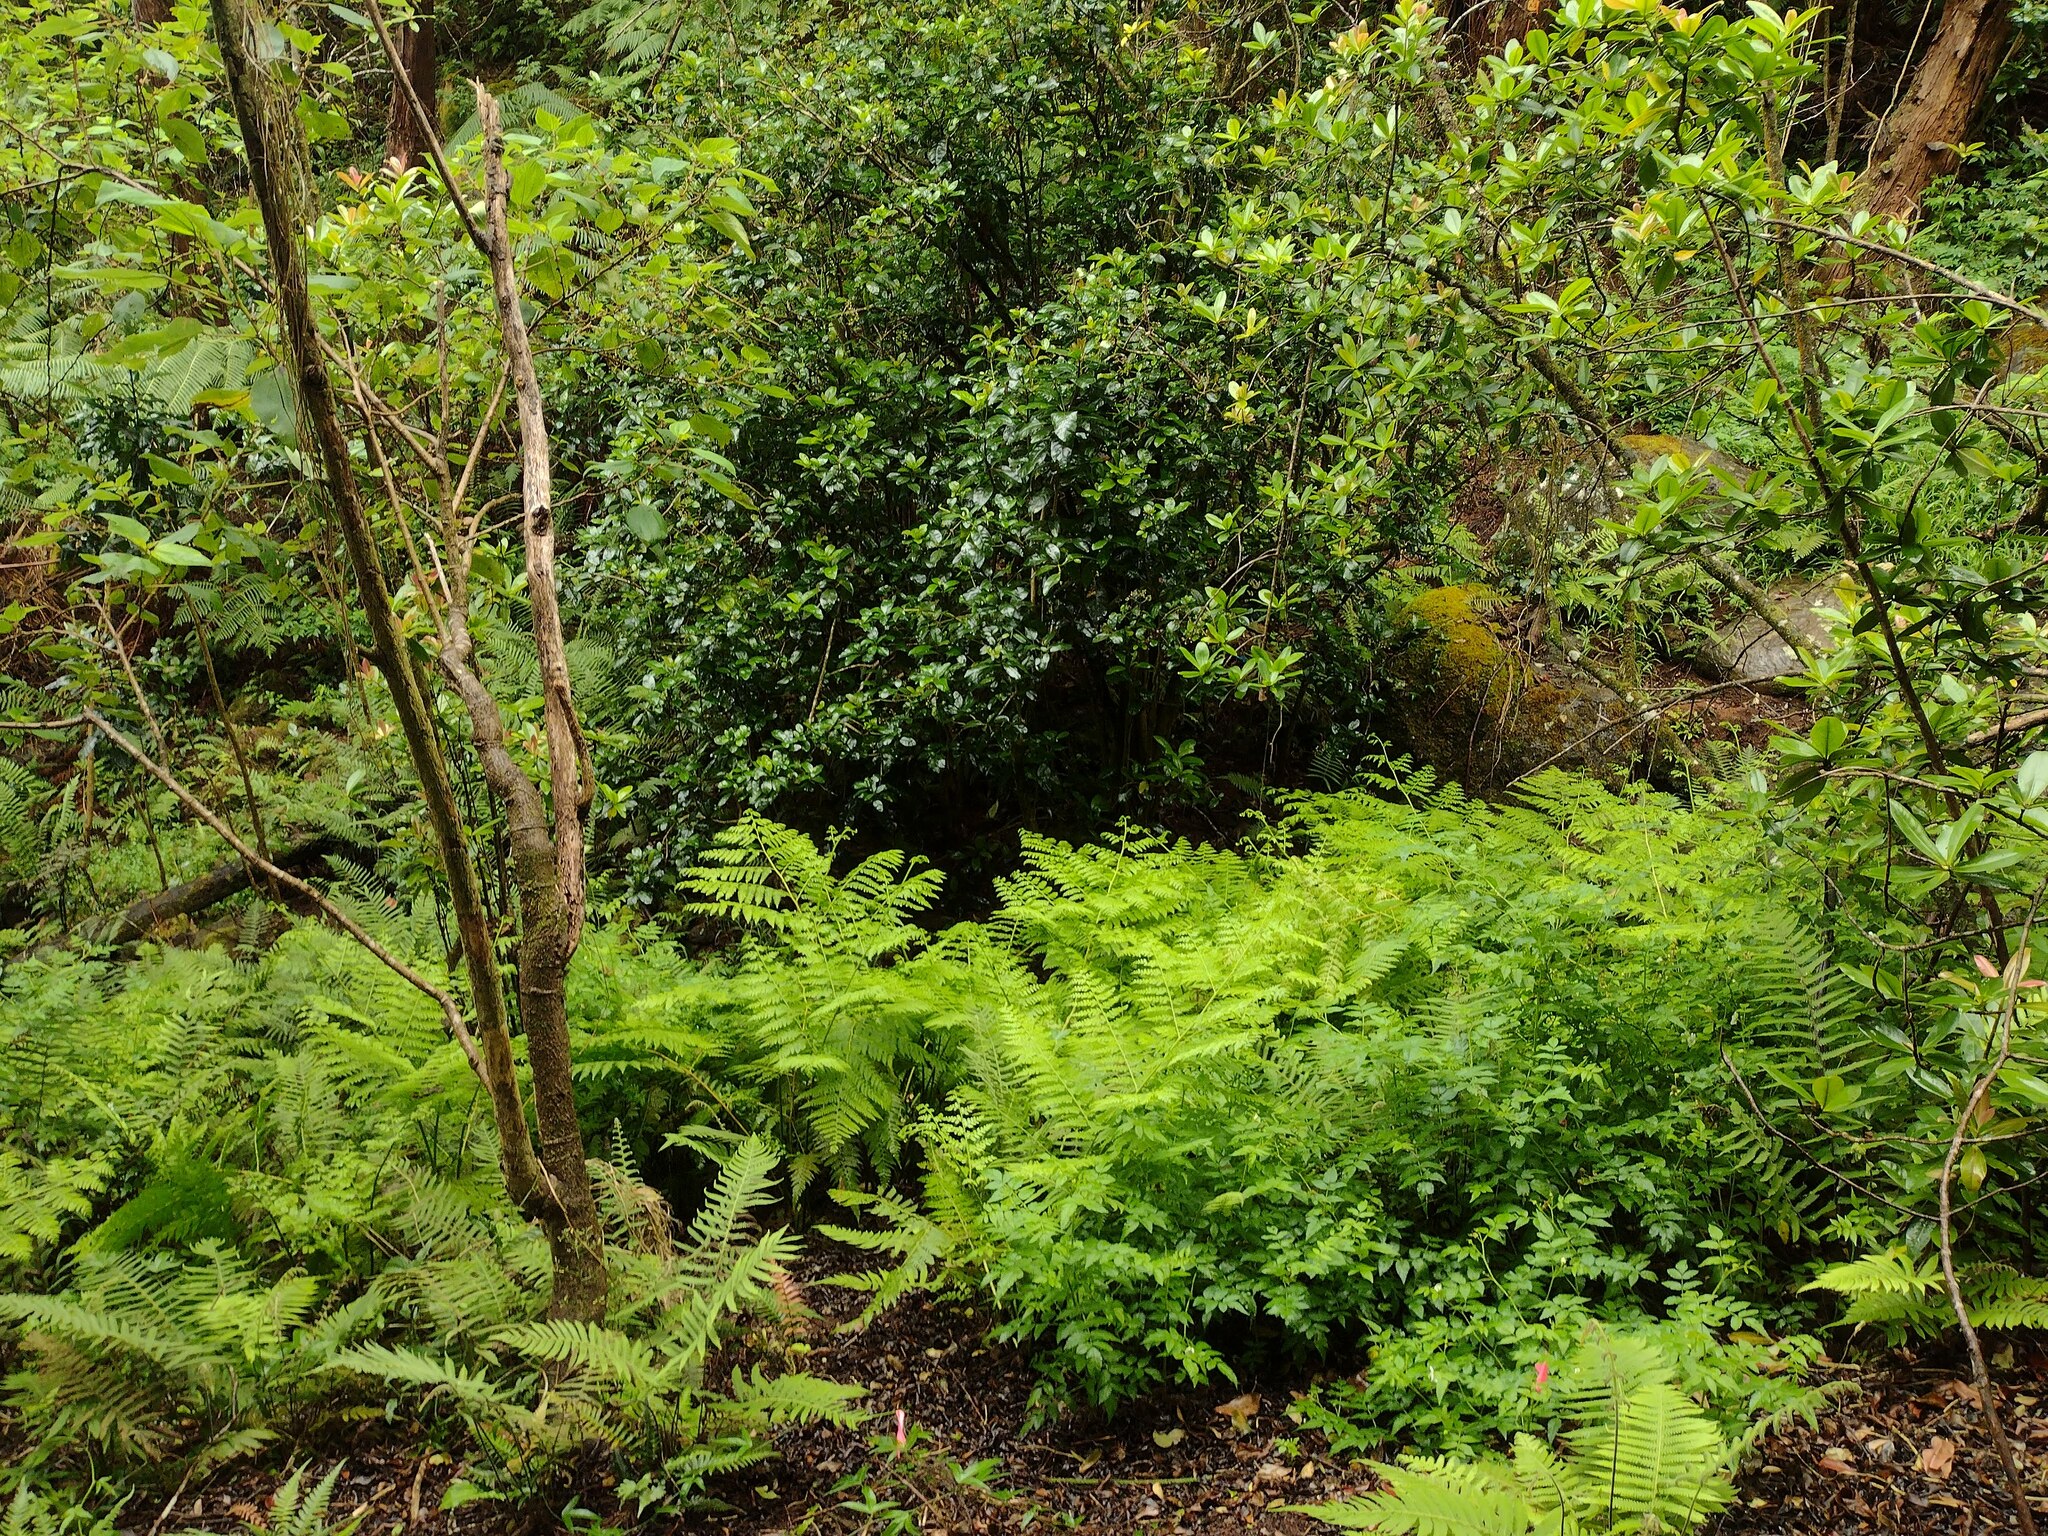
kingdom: Plantae
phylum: Tracheophyta
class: Polypodiopsida
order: Polypodiales
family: Dennstaedtiaceae
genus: Microlepia
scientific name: Microlepia speluncae
